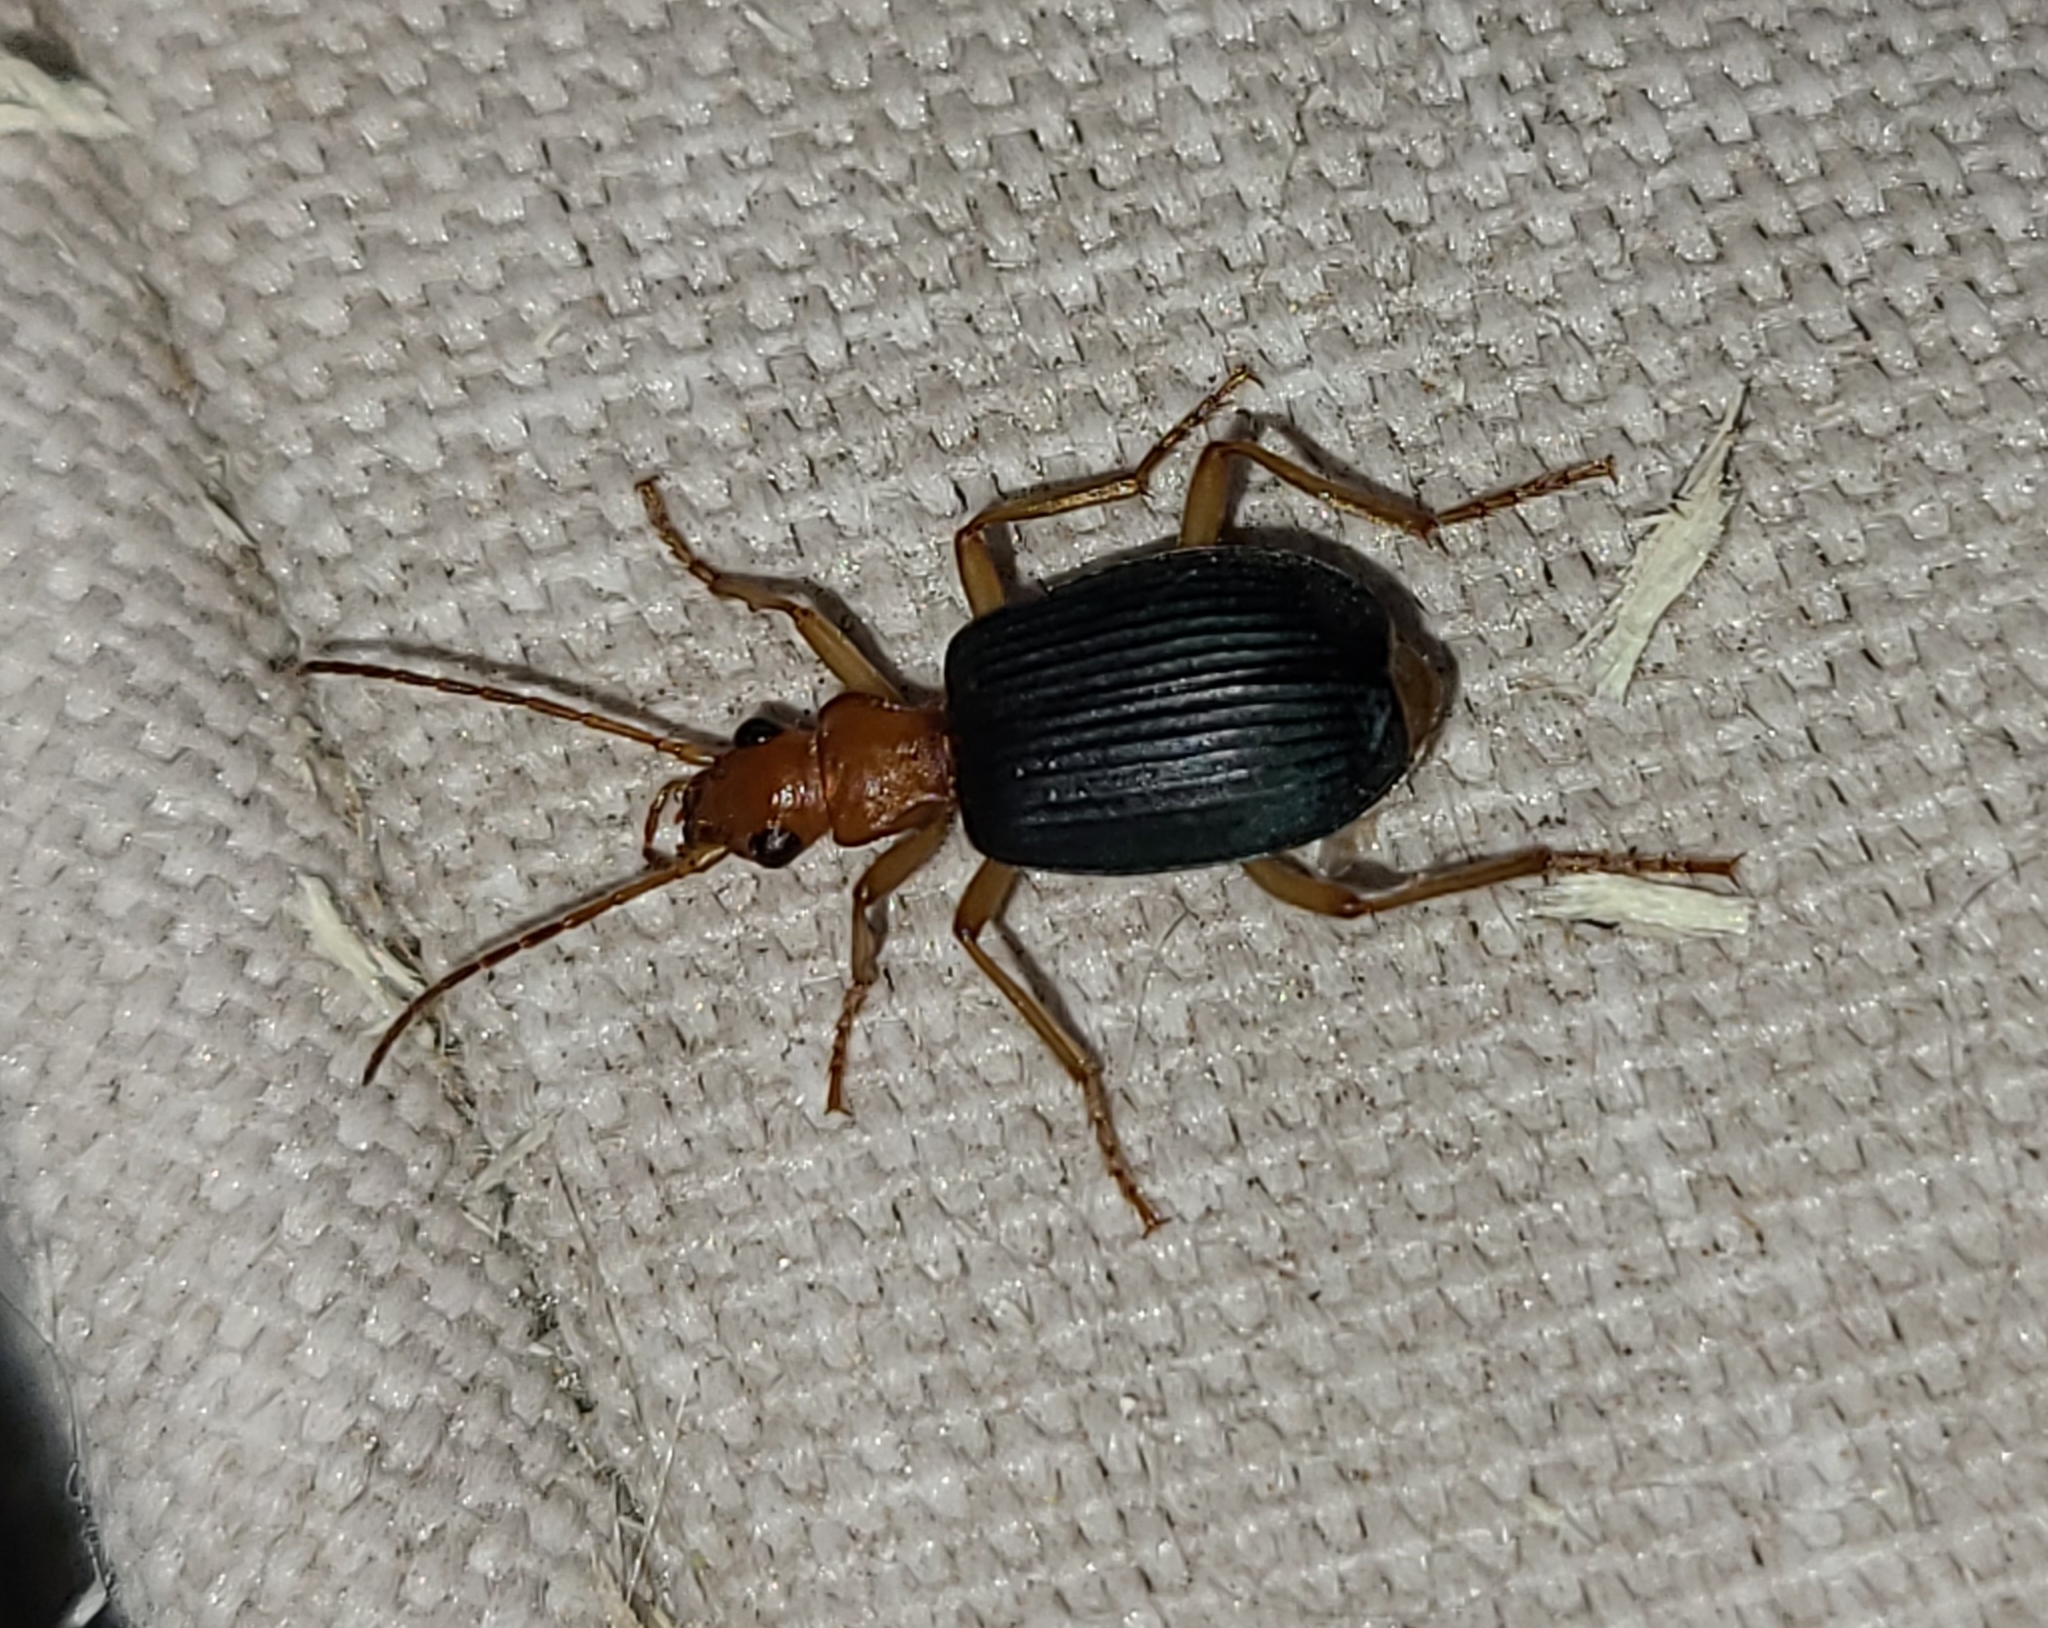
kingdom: Animalia
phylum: Arthropoda
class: Insecta
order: Coleoptera
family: Carabidae
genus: Brachinus
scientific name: Brachinus
